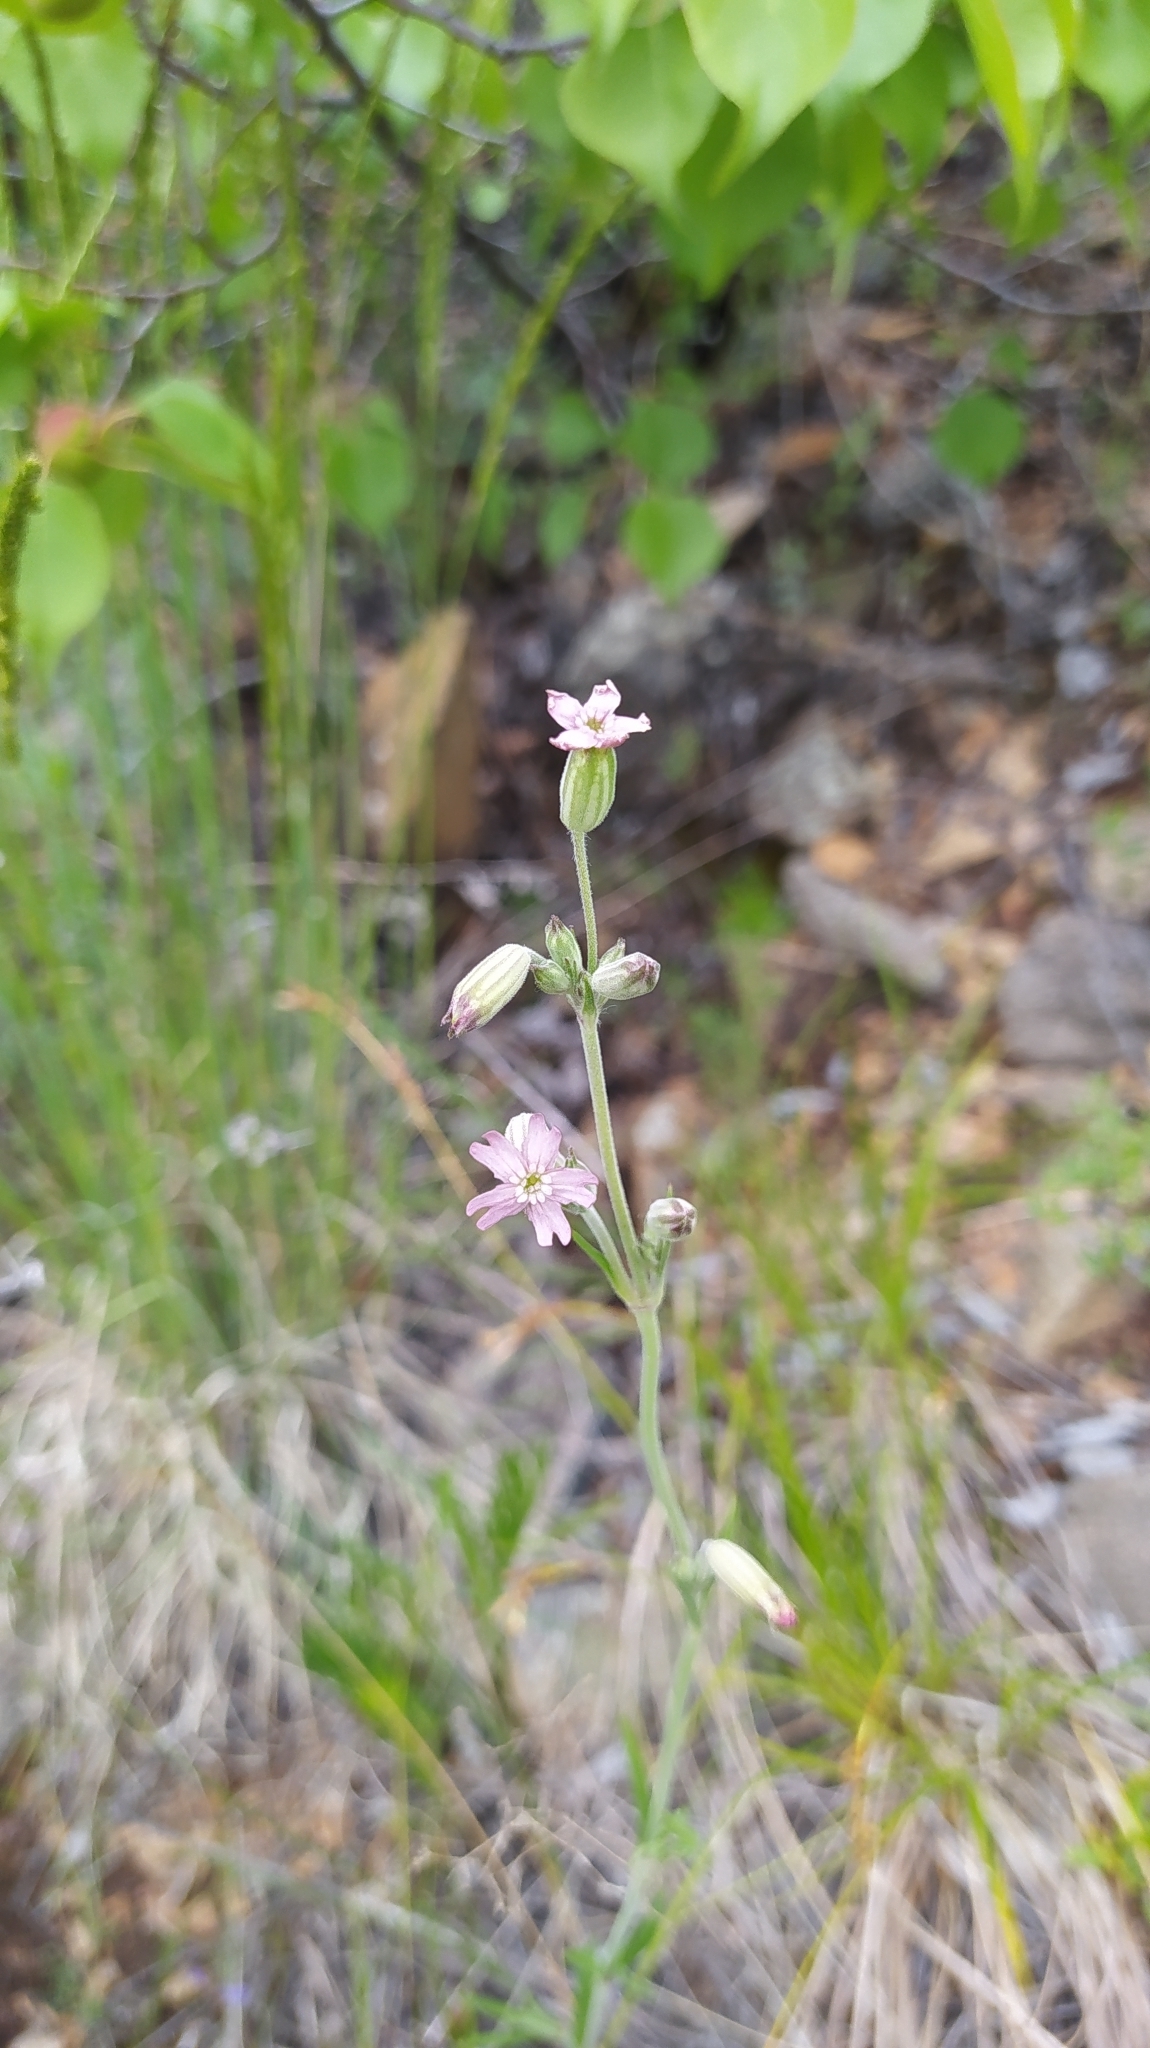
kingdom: Plantae
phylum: Tracheophyta
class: Magnoliopsida
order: Caryophyllales
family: Caryophyllaceae
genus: Silene
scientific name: Silene aprica
